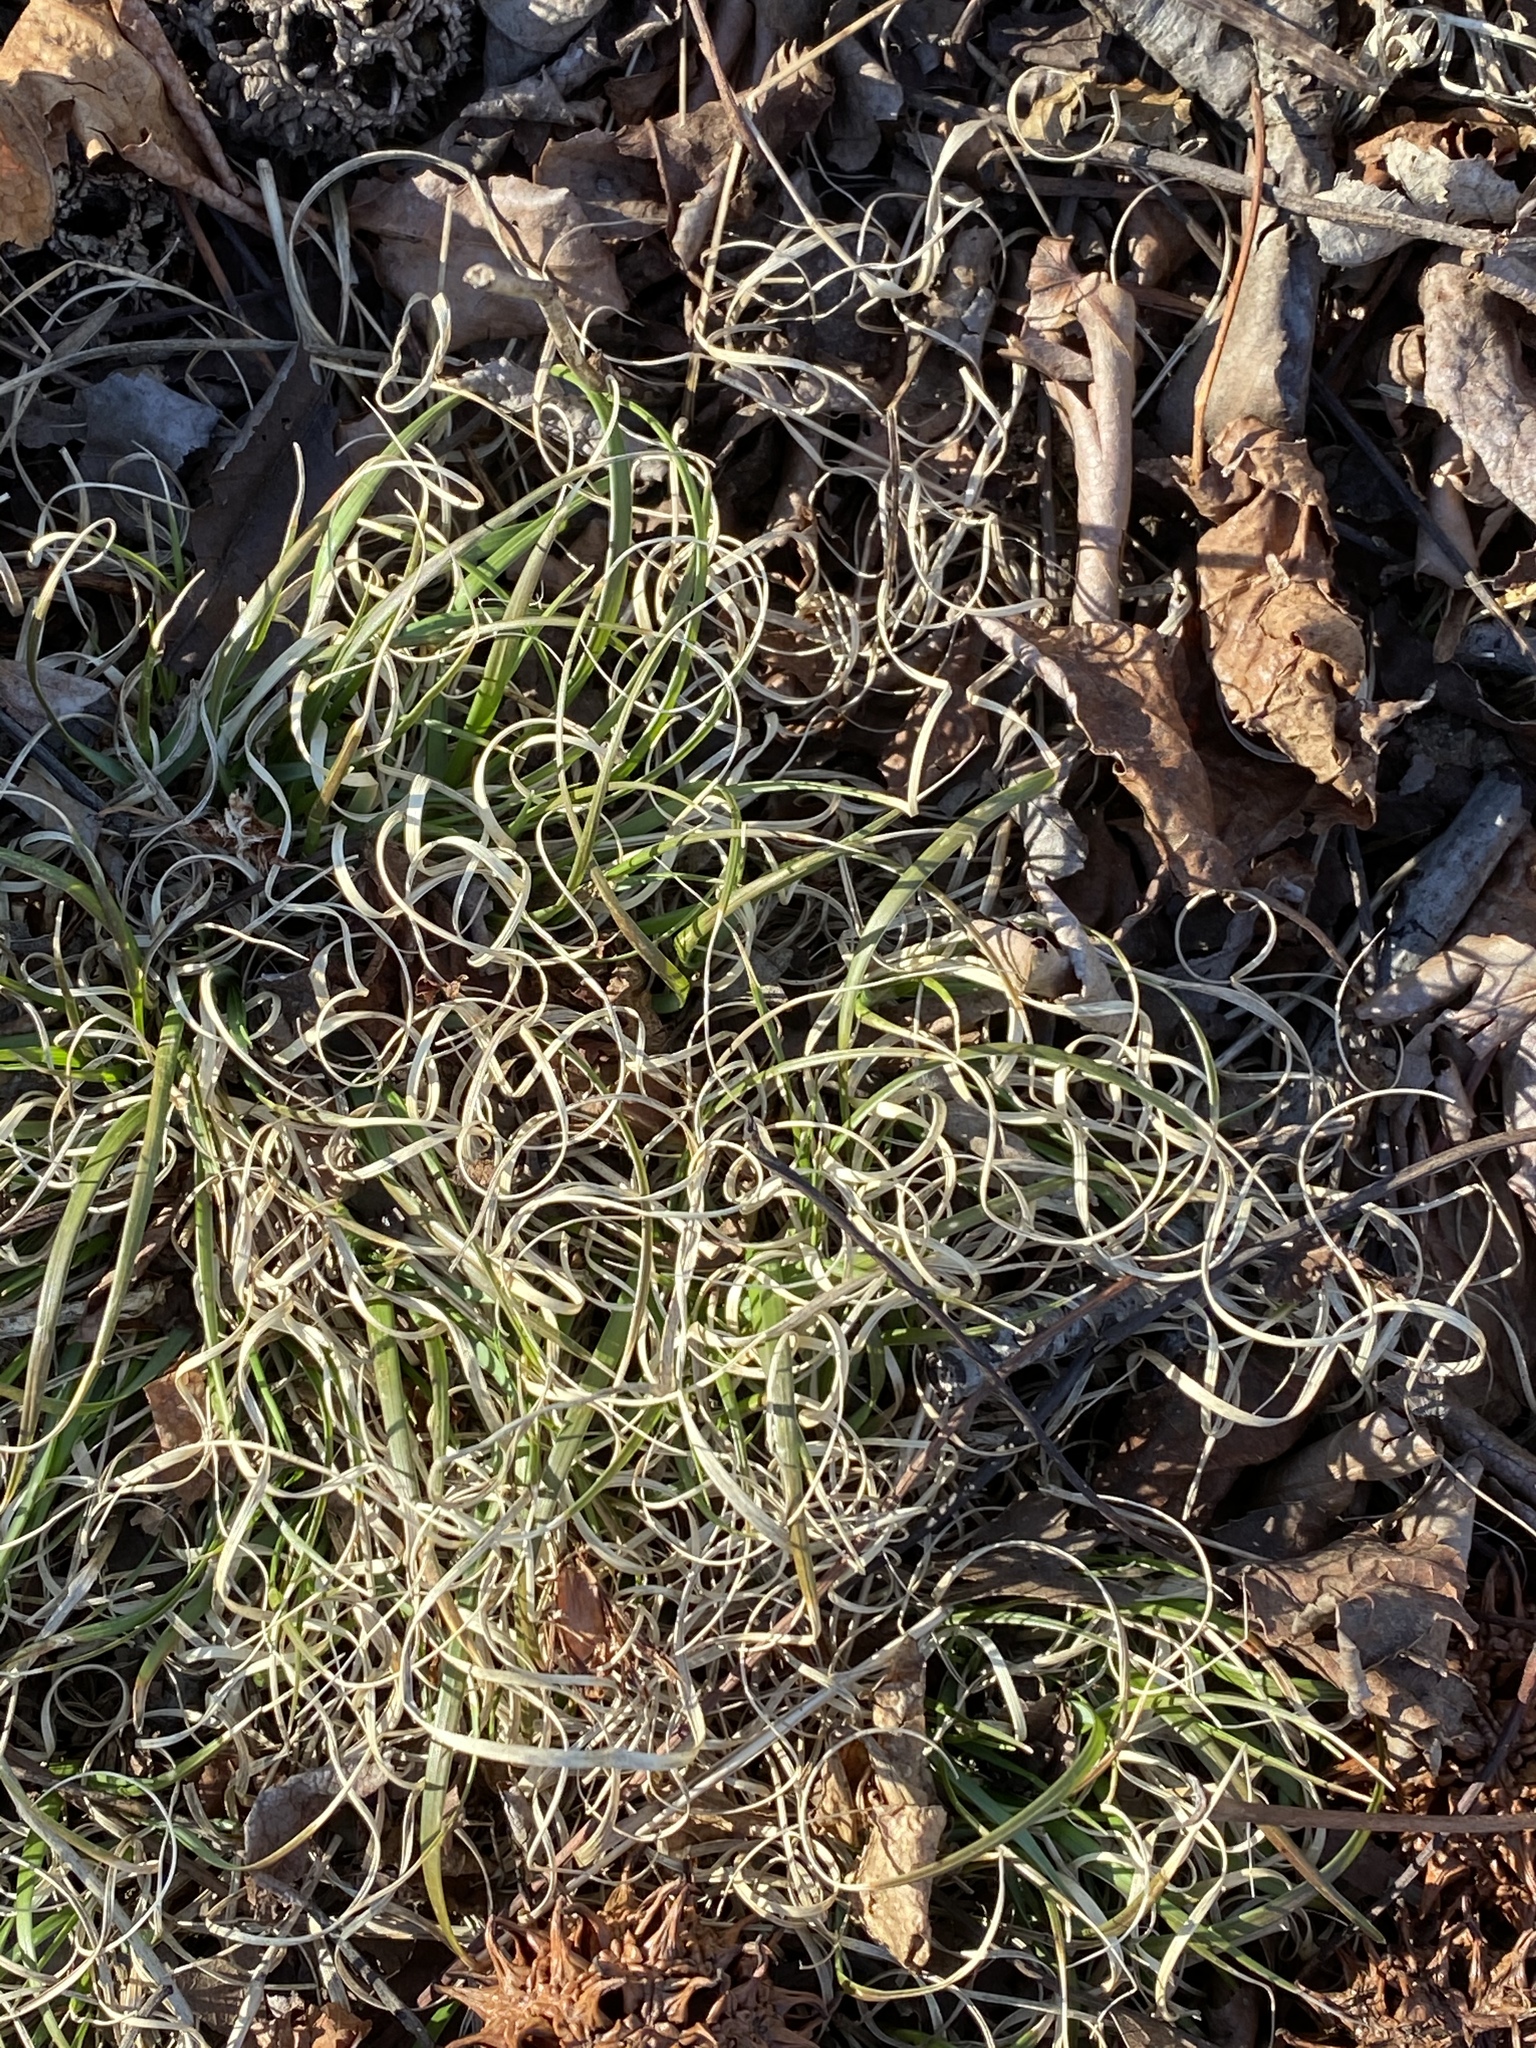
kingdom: Plantae
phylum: Tracheophyta
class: Liliopsida
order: Poales
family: Poaceae
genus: Danthonia
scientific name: Danthonia spicata
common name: Common wild oatgrass
